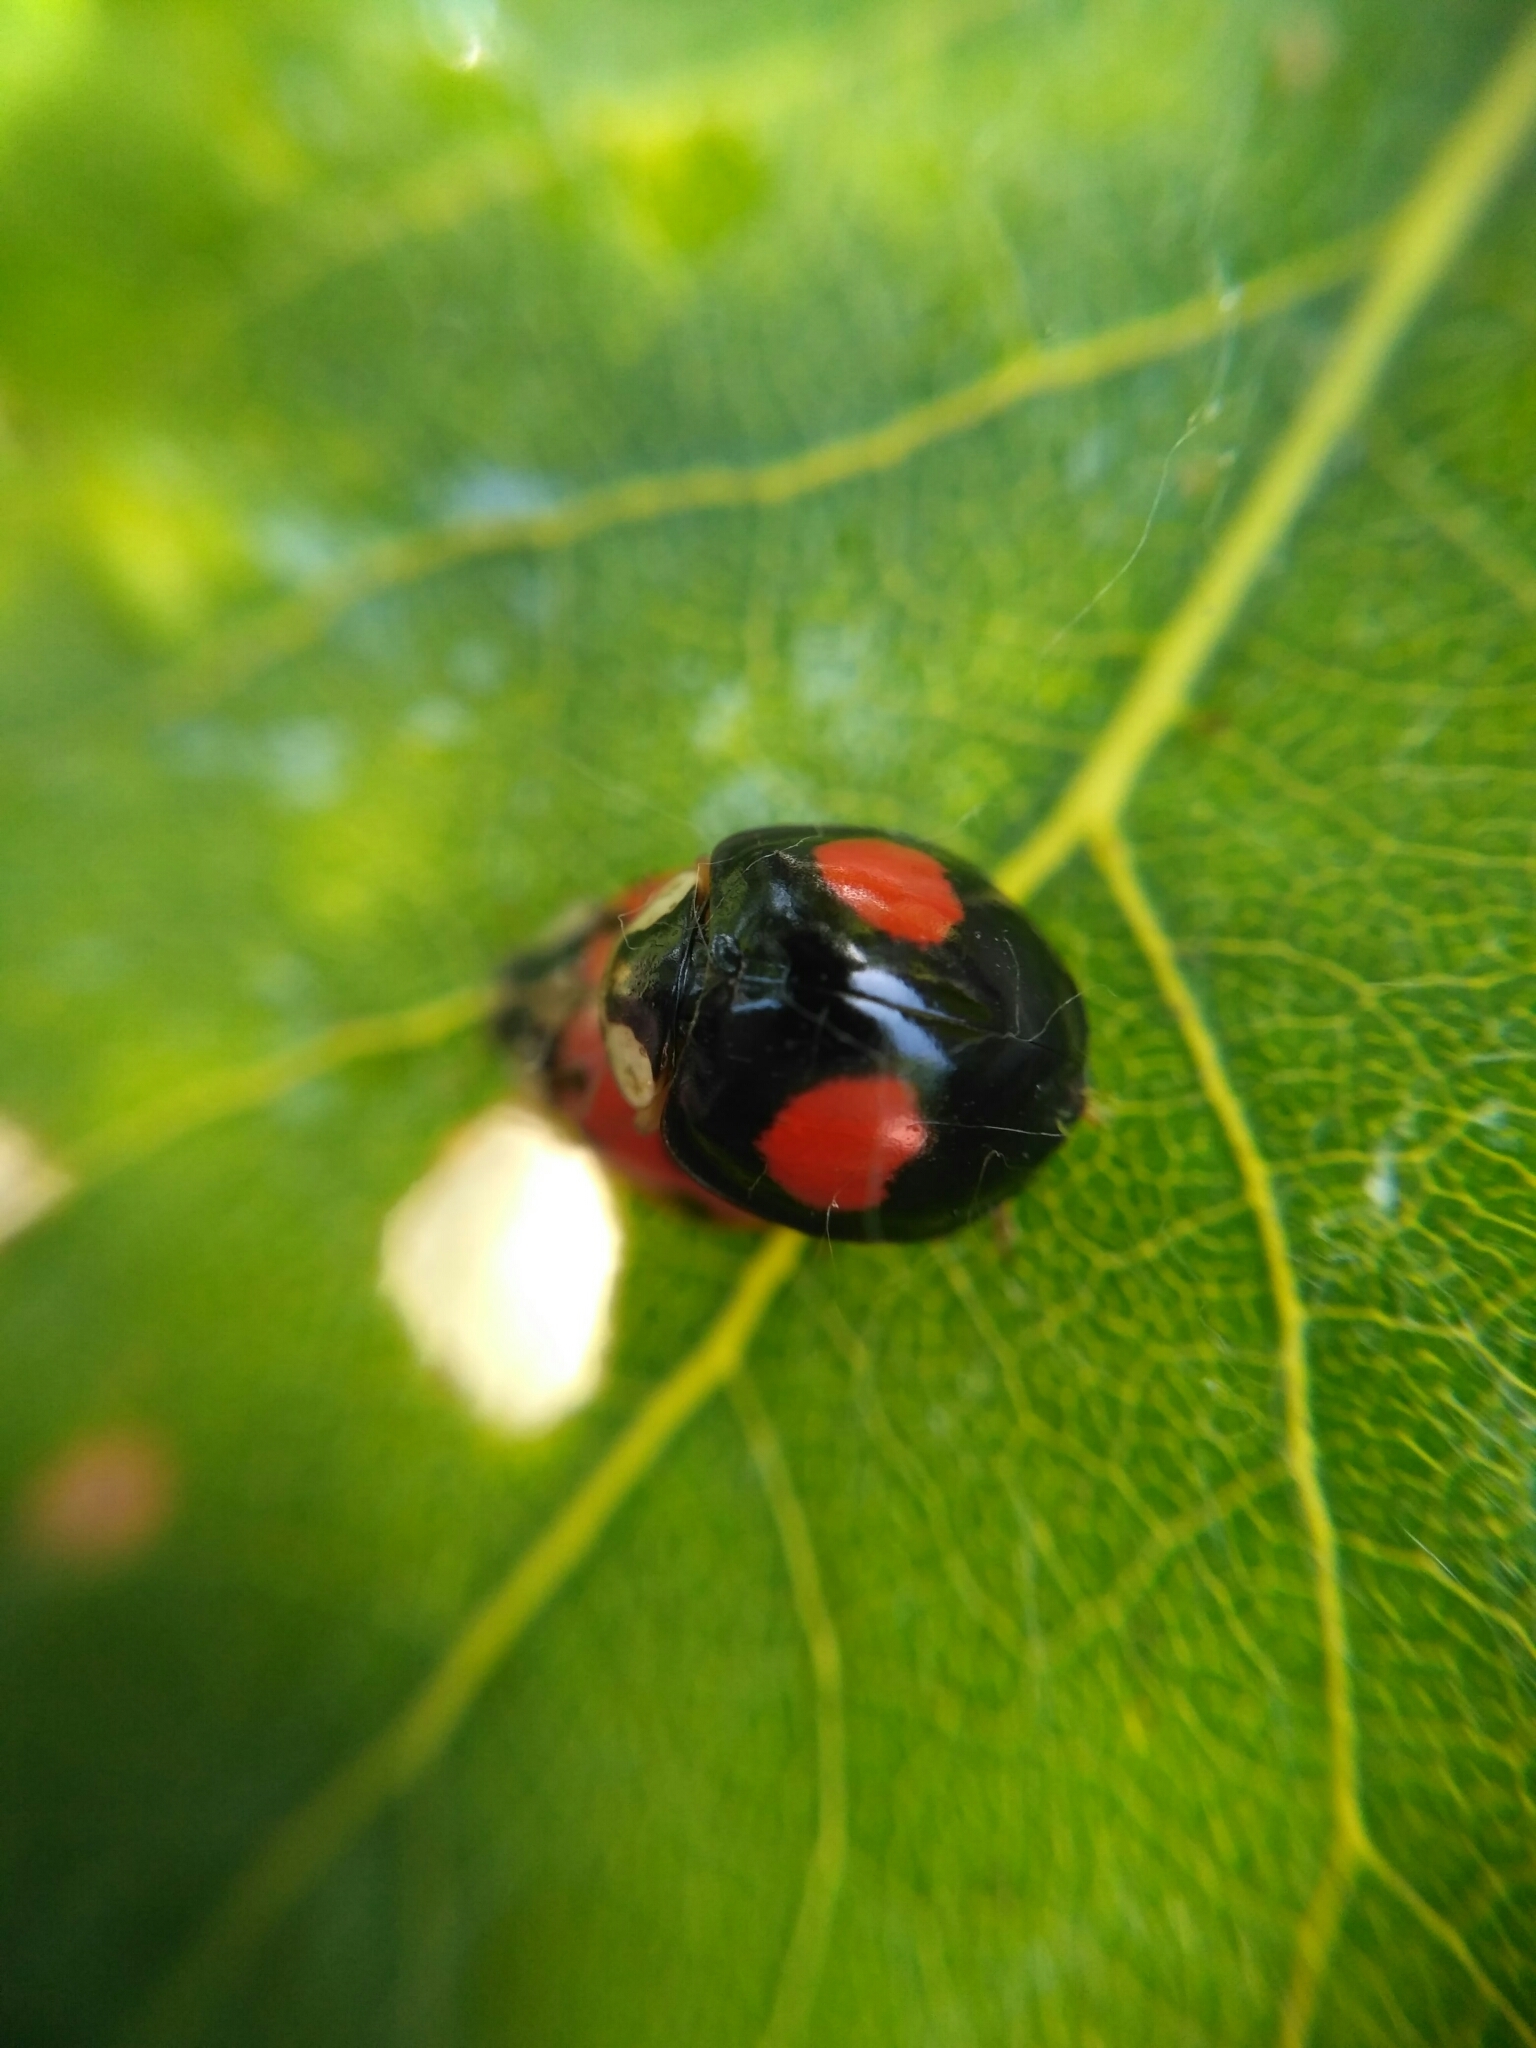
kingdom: Animalia
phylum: Arthropoda
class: Insecta
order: Coleoptera
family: Coccinellidae
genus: Harmonia
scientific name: Harmonia axyridis
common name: Harlequin ladybird
